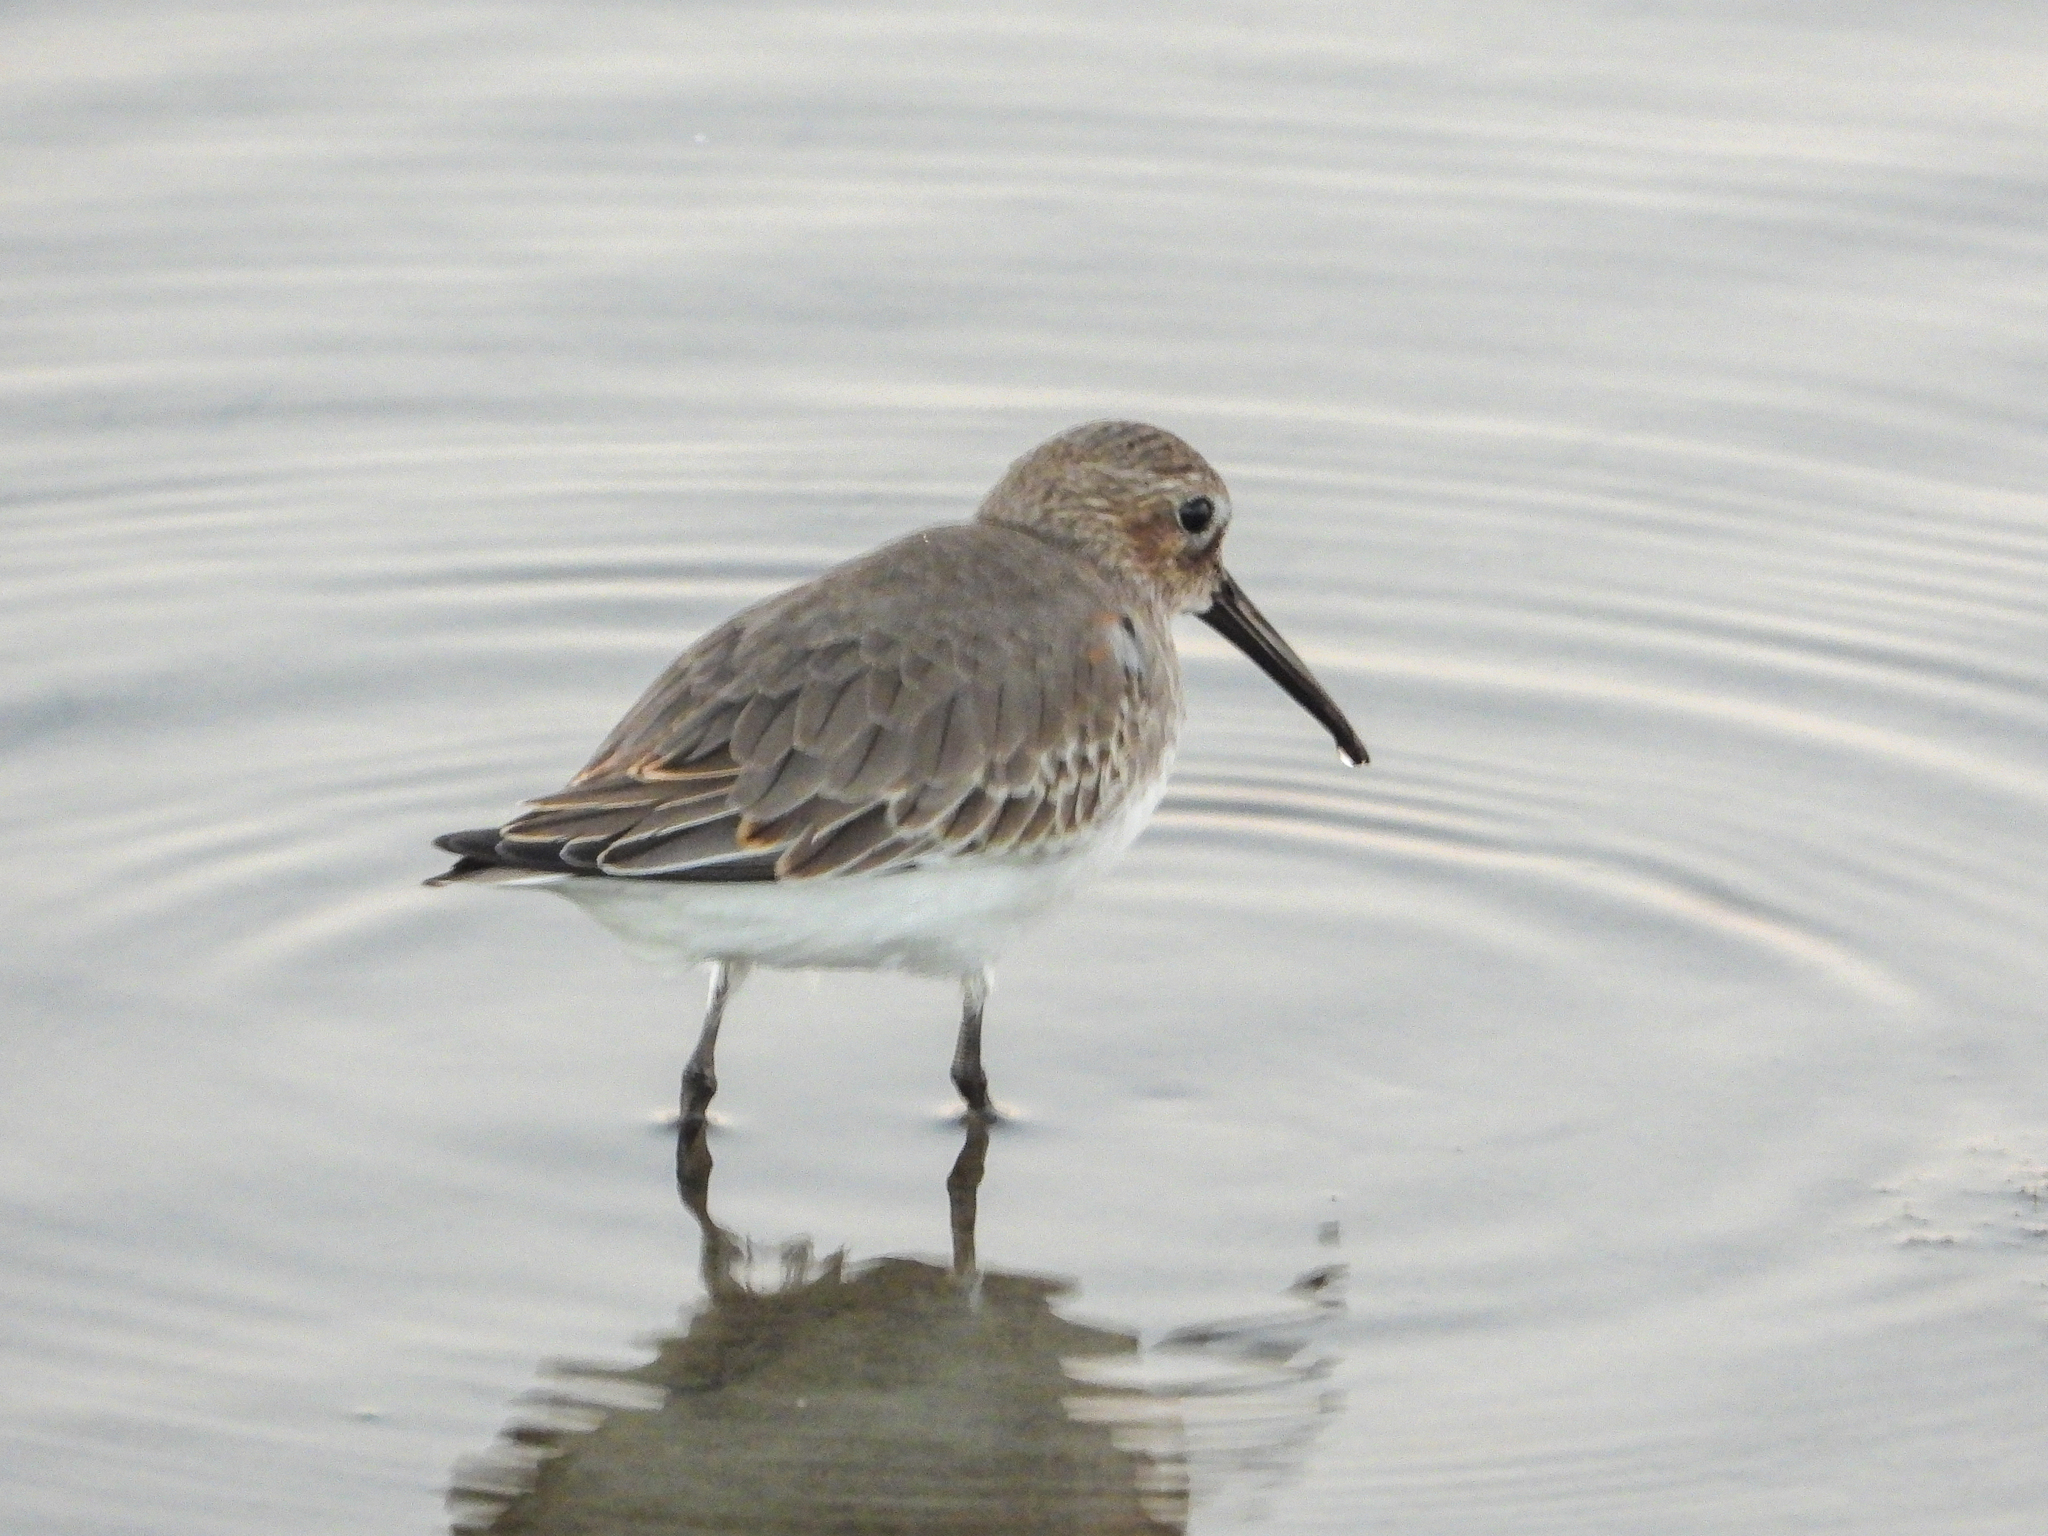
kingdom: Animalia
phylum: Chordata
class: Aves
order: Charadriiformes
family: Scolopacidae
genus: Calidris
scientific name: Calidris alpina
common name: Dunlin
